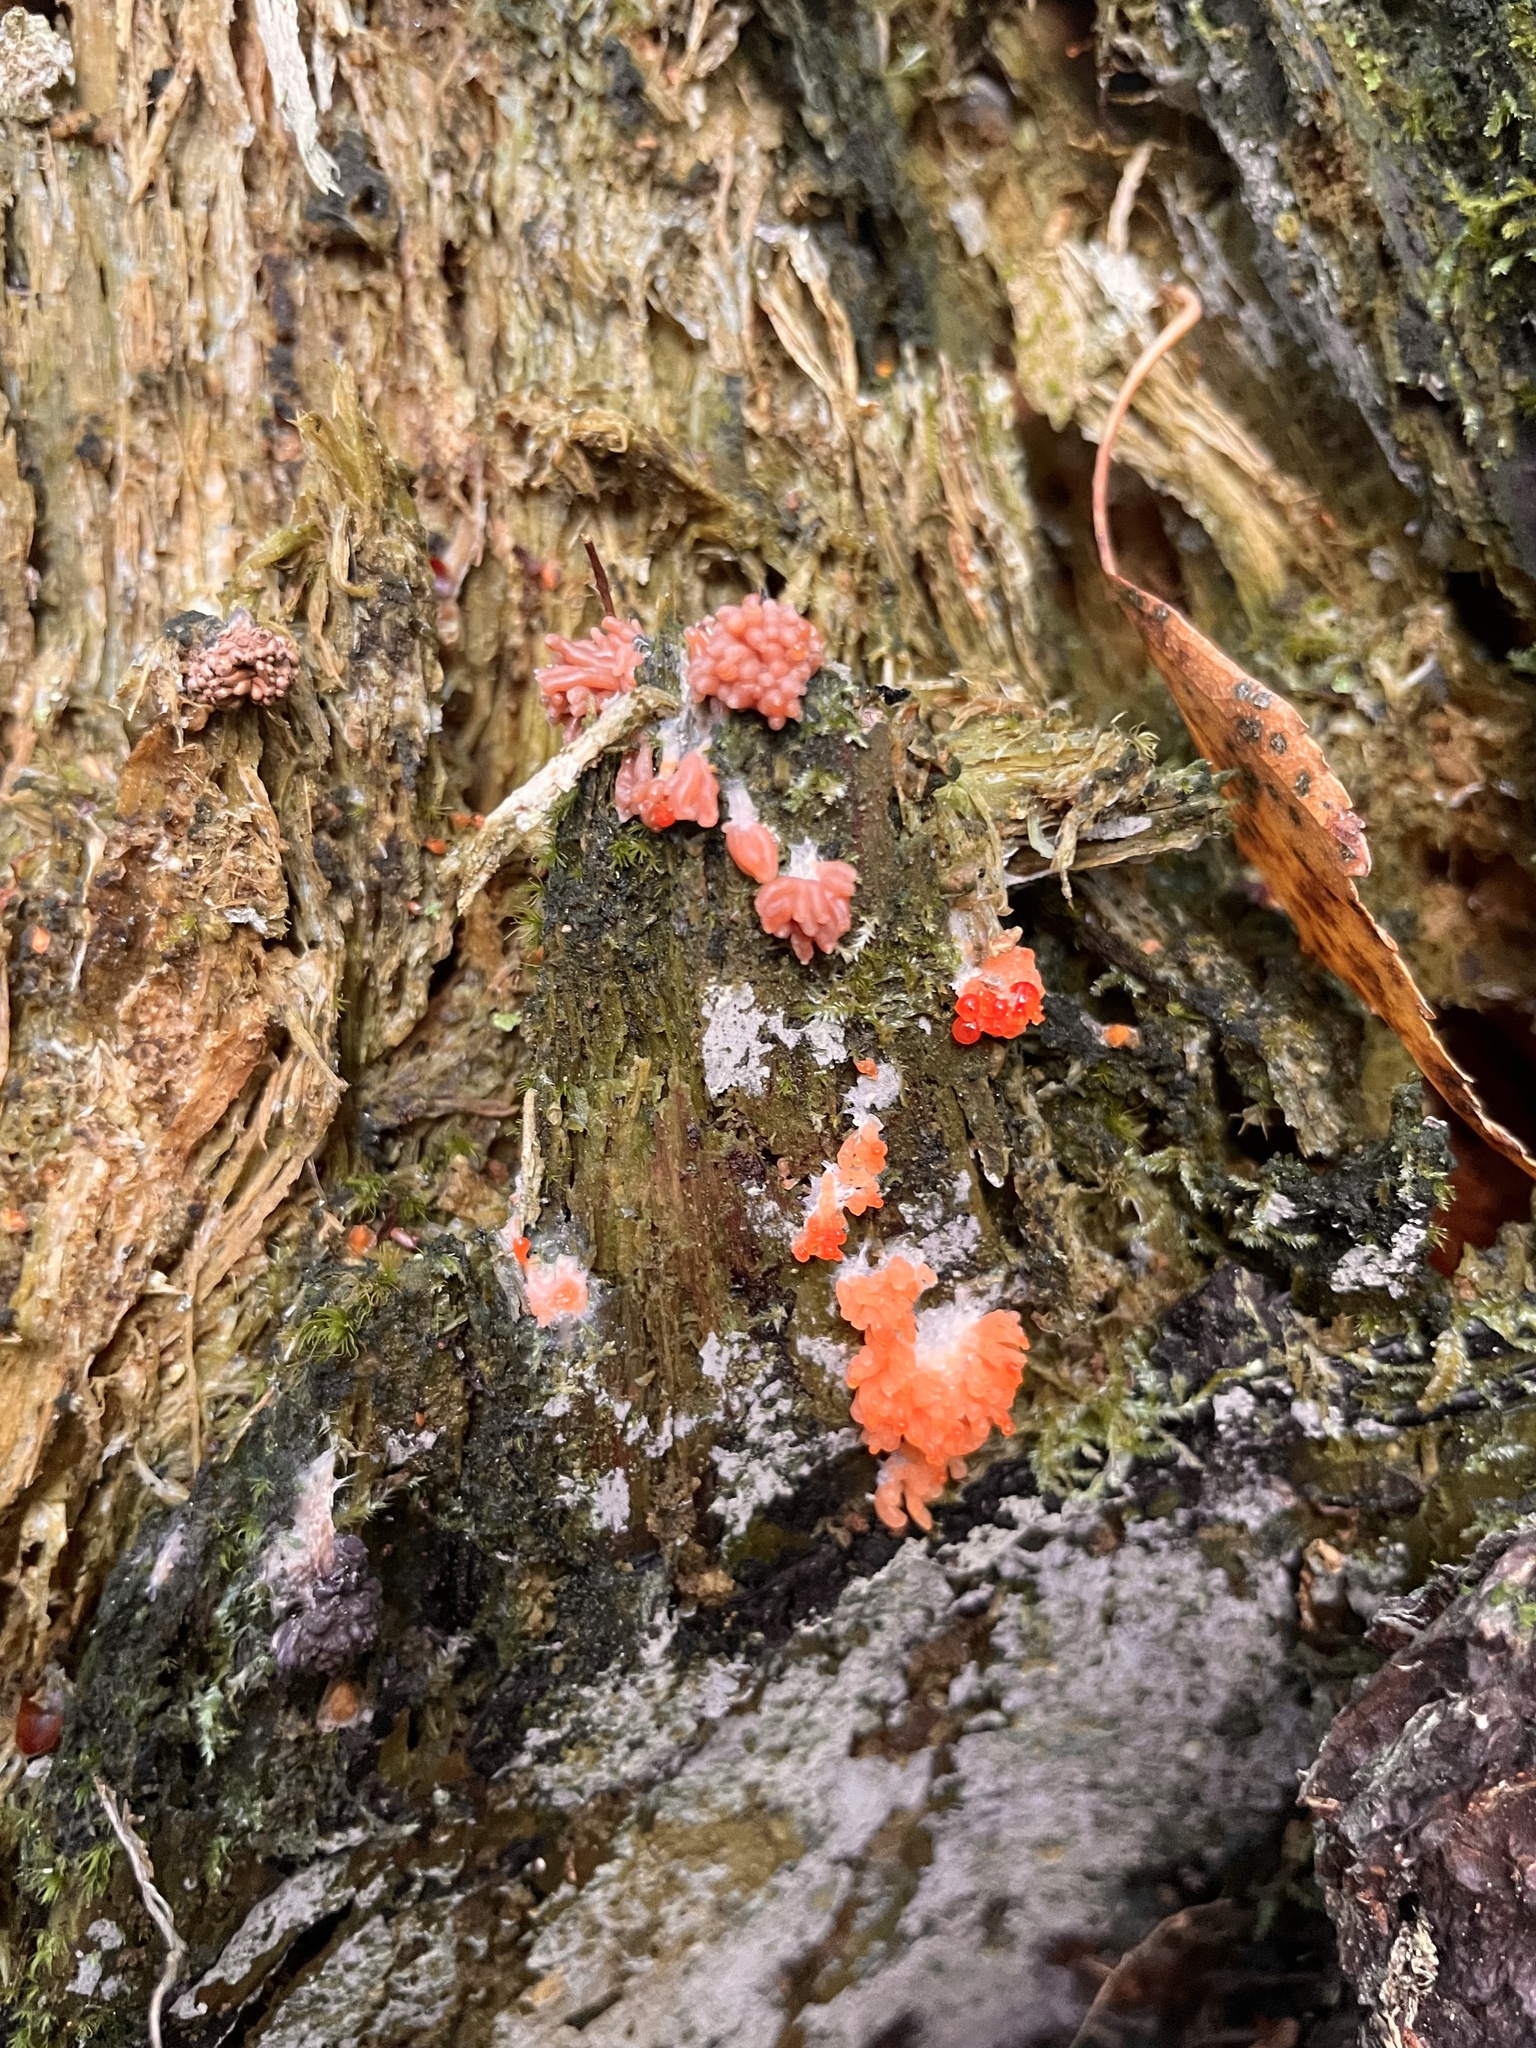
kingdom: Protozoa
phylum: Mycetozoa
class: Myxomycetes
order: Cribrariales
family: Tubiferaceae
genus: Tubifera
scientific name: Tubifera ferruginosa
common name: Red raspberry slime mold
